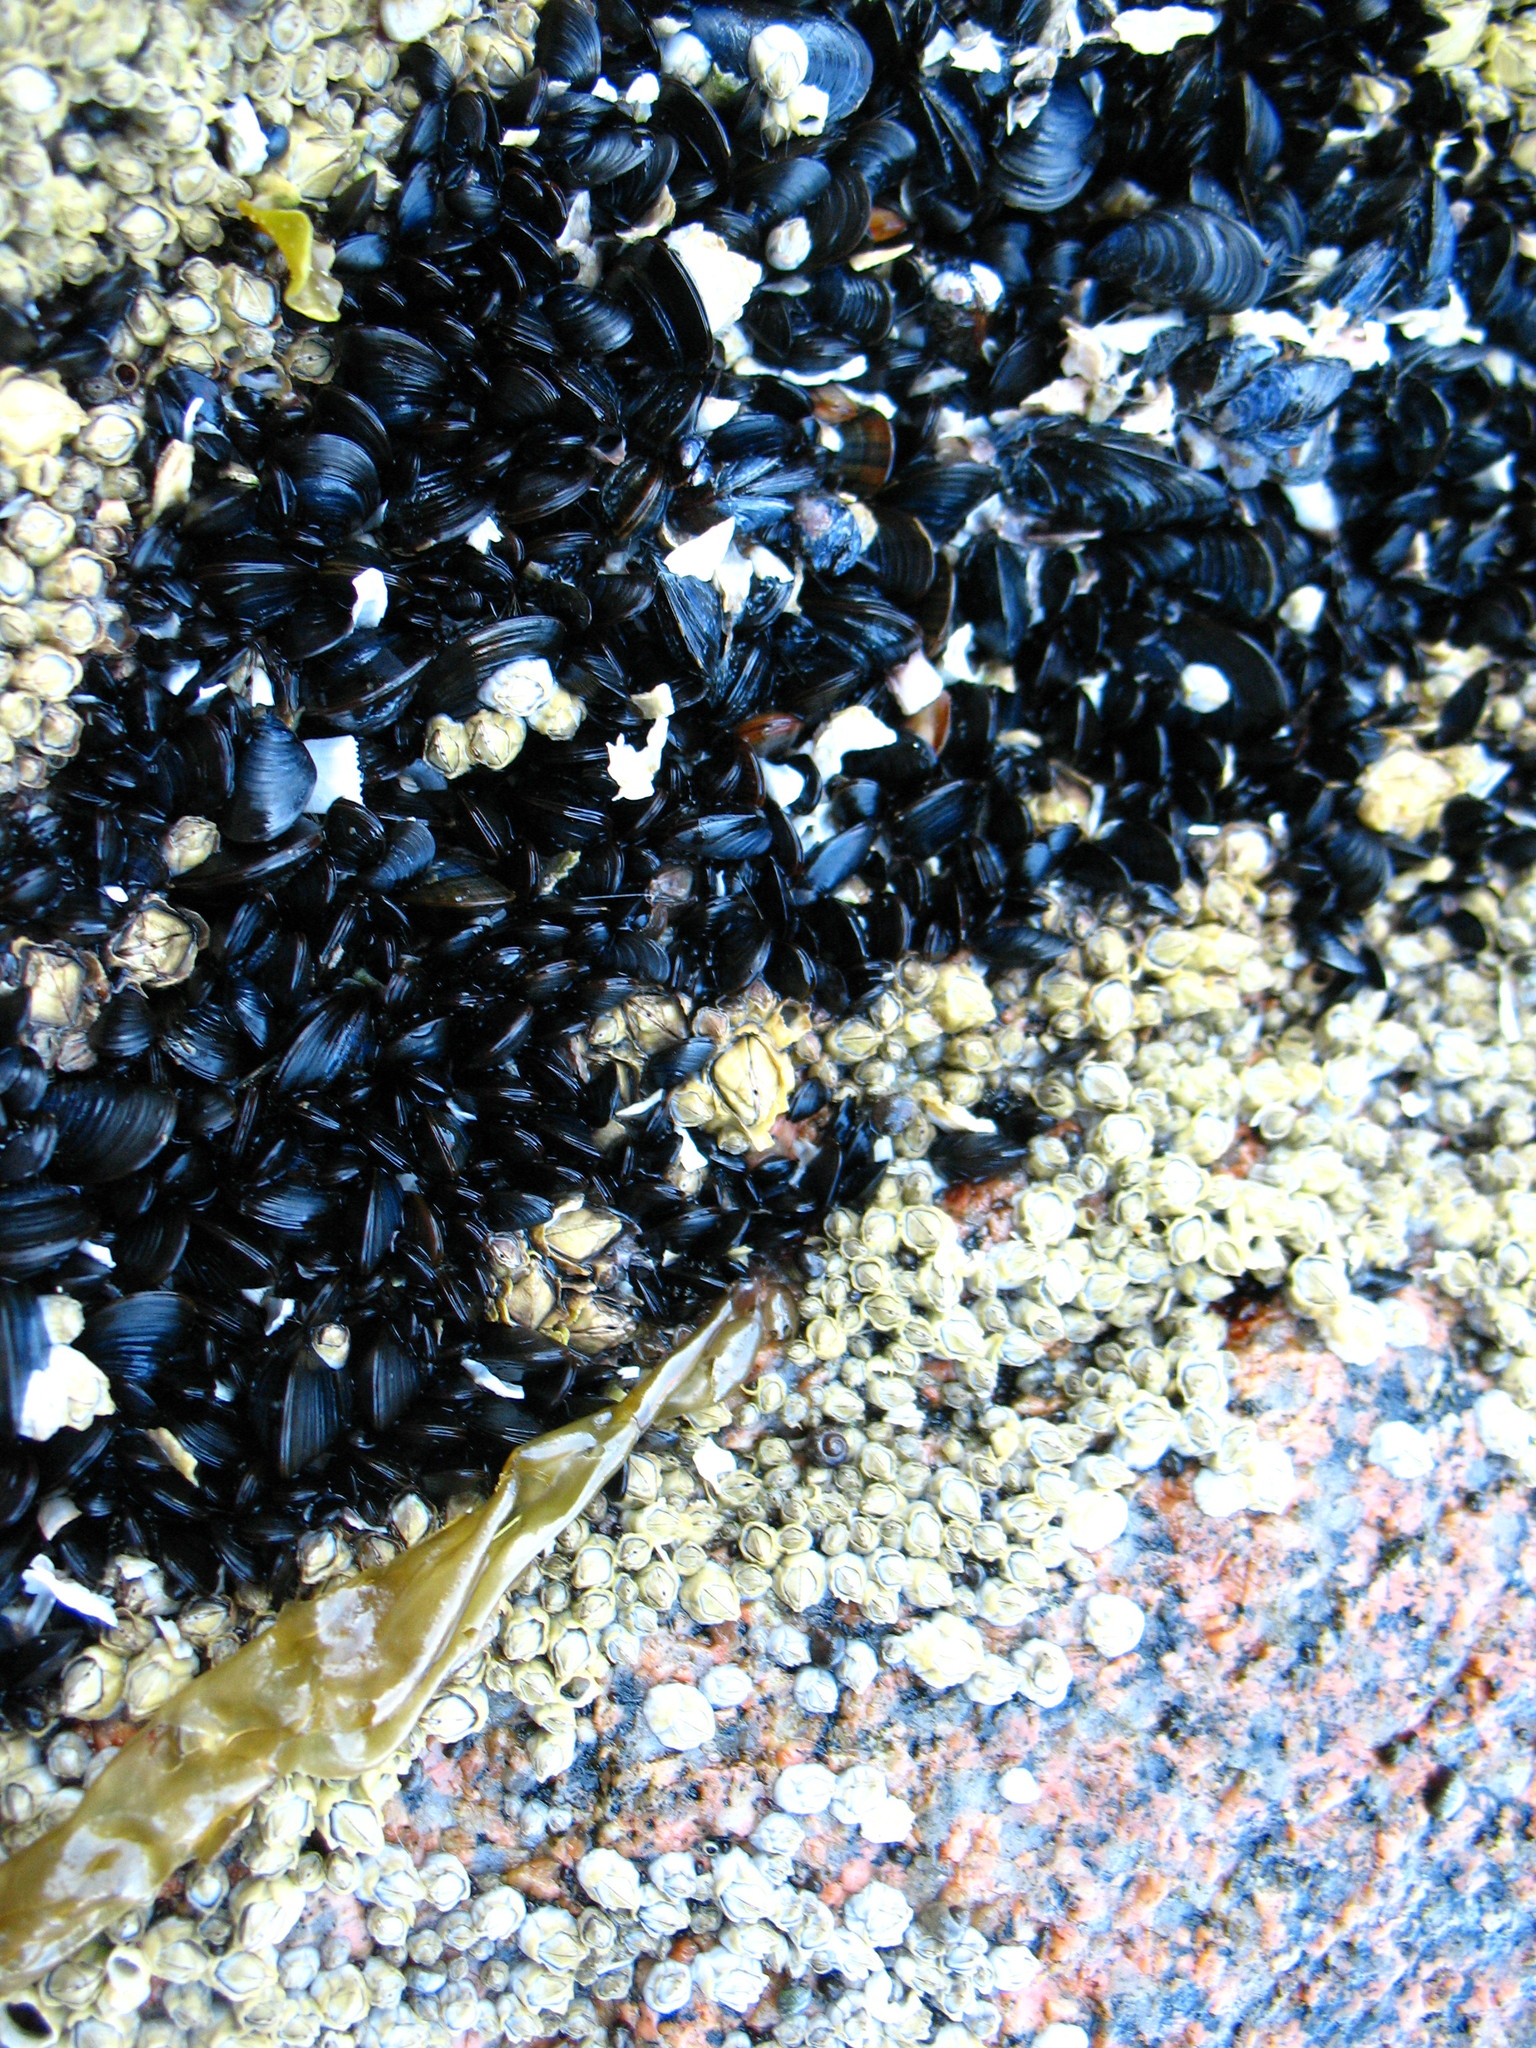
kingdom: Animalia
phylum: Mollusca
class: Bivalvia
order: Mytilida
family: Mytilidae
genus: Mytilus
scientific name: Mytilus edulis
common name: Blue mussel
